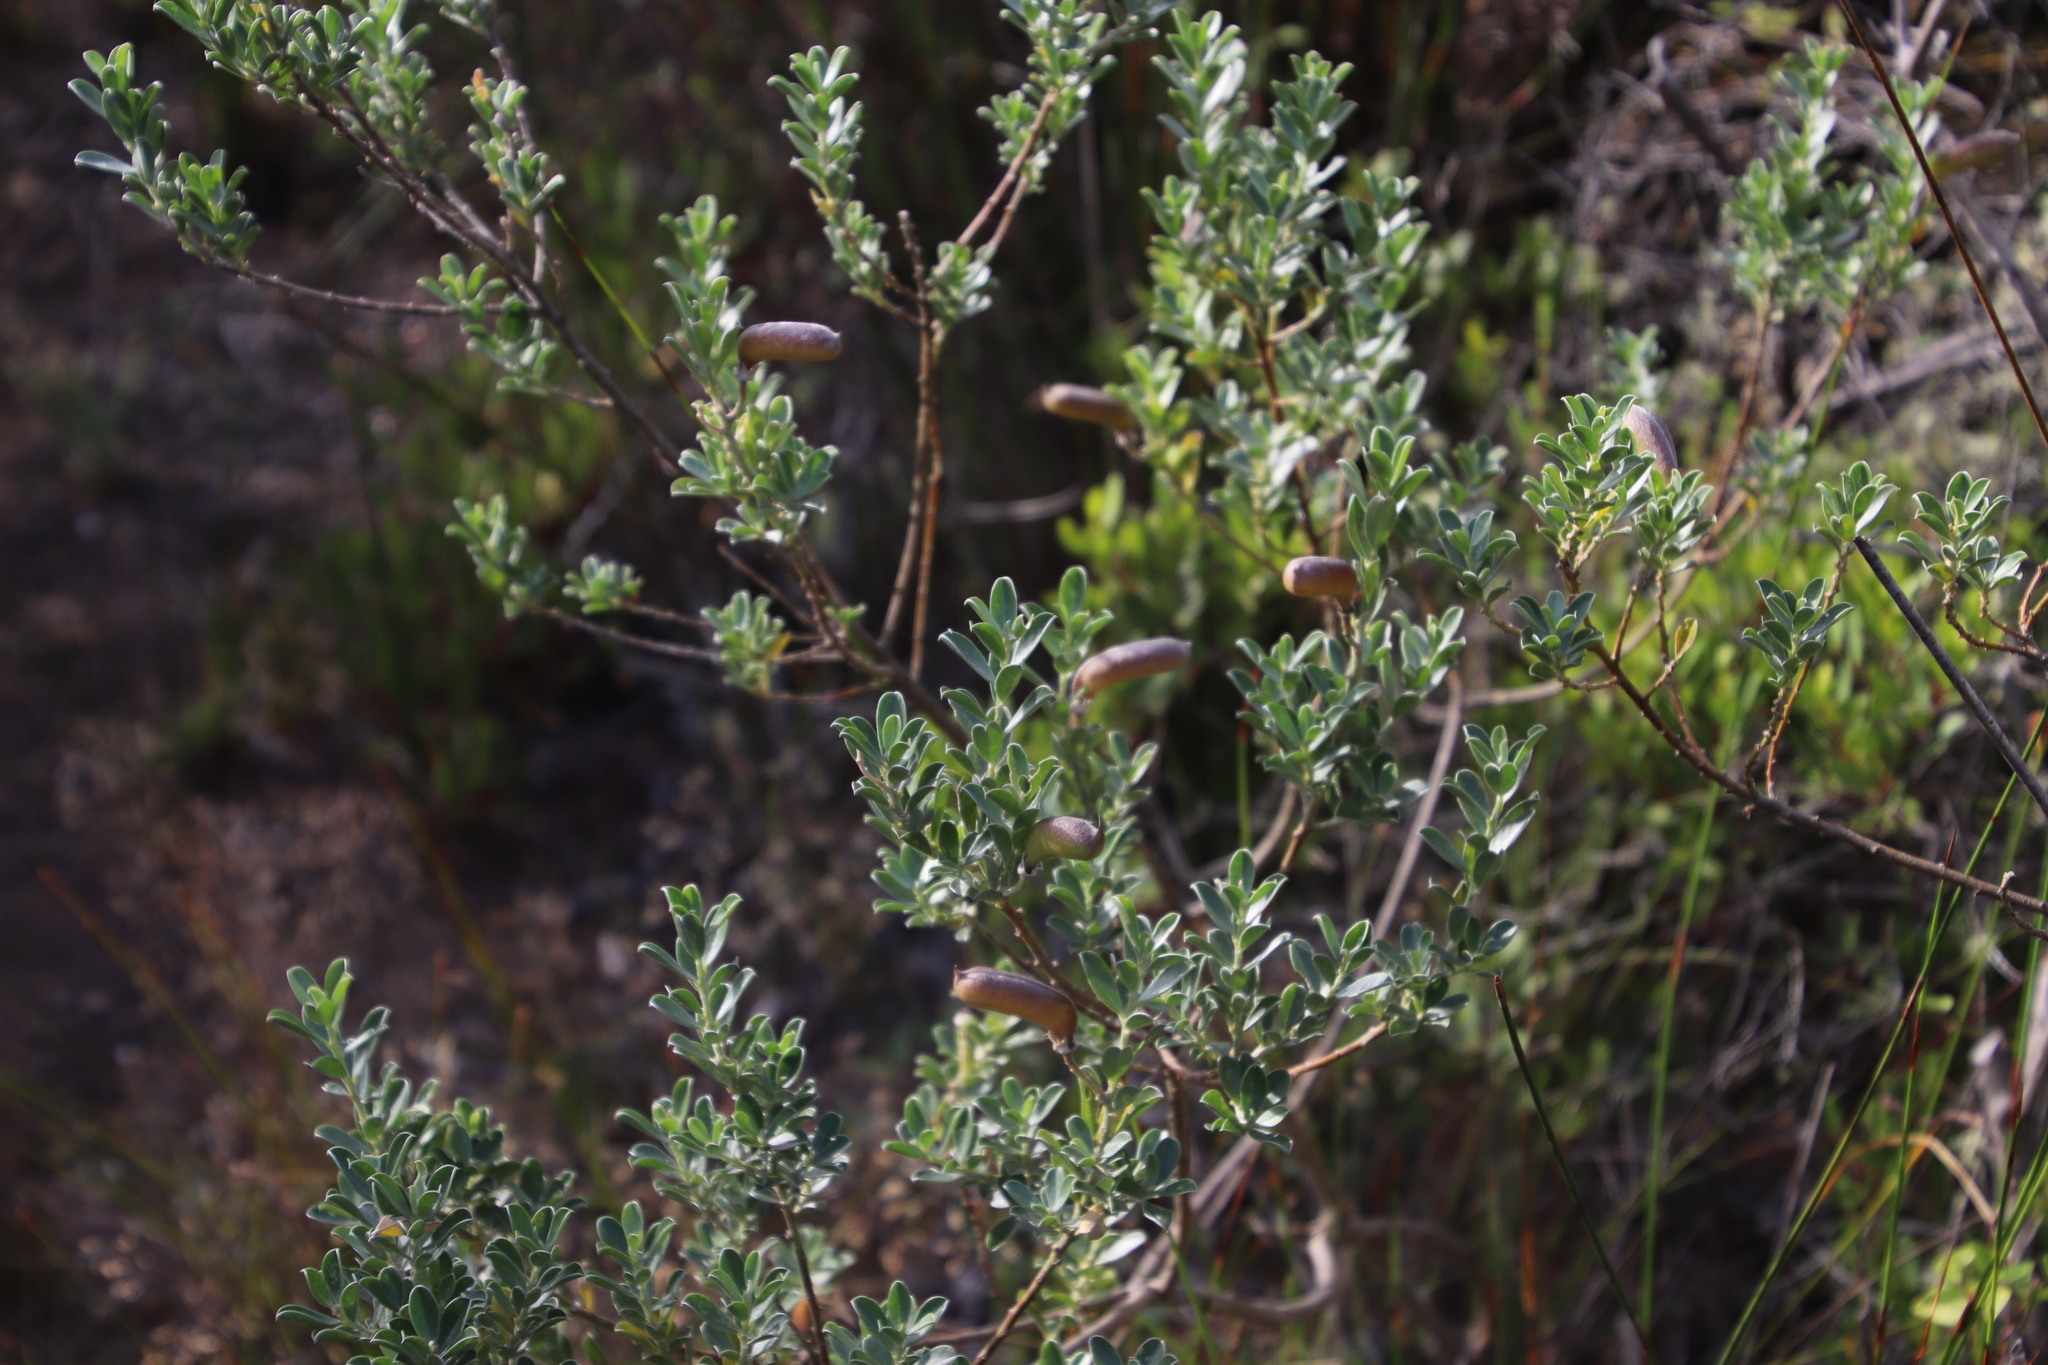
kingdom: Plantae
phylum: Tracheophyta
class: Magnoliopsida
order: Fabales
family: Fabaceae
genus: Podalyria
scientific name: Podalyria myrtillifolia
